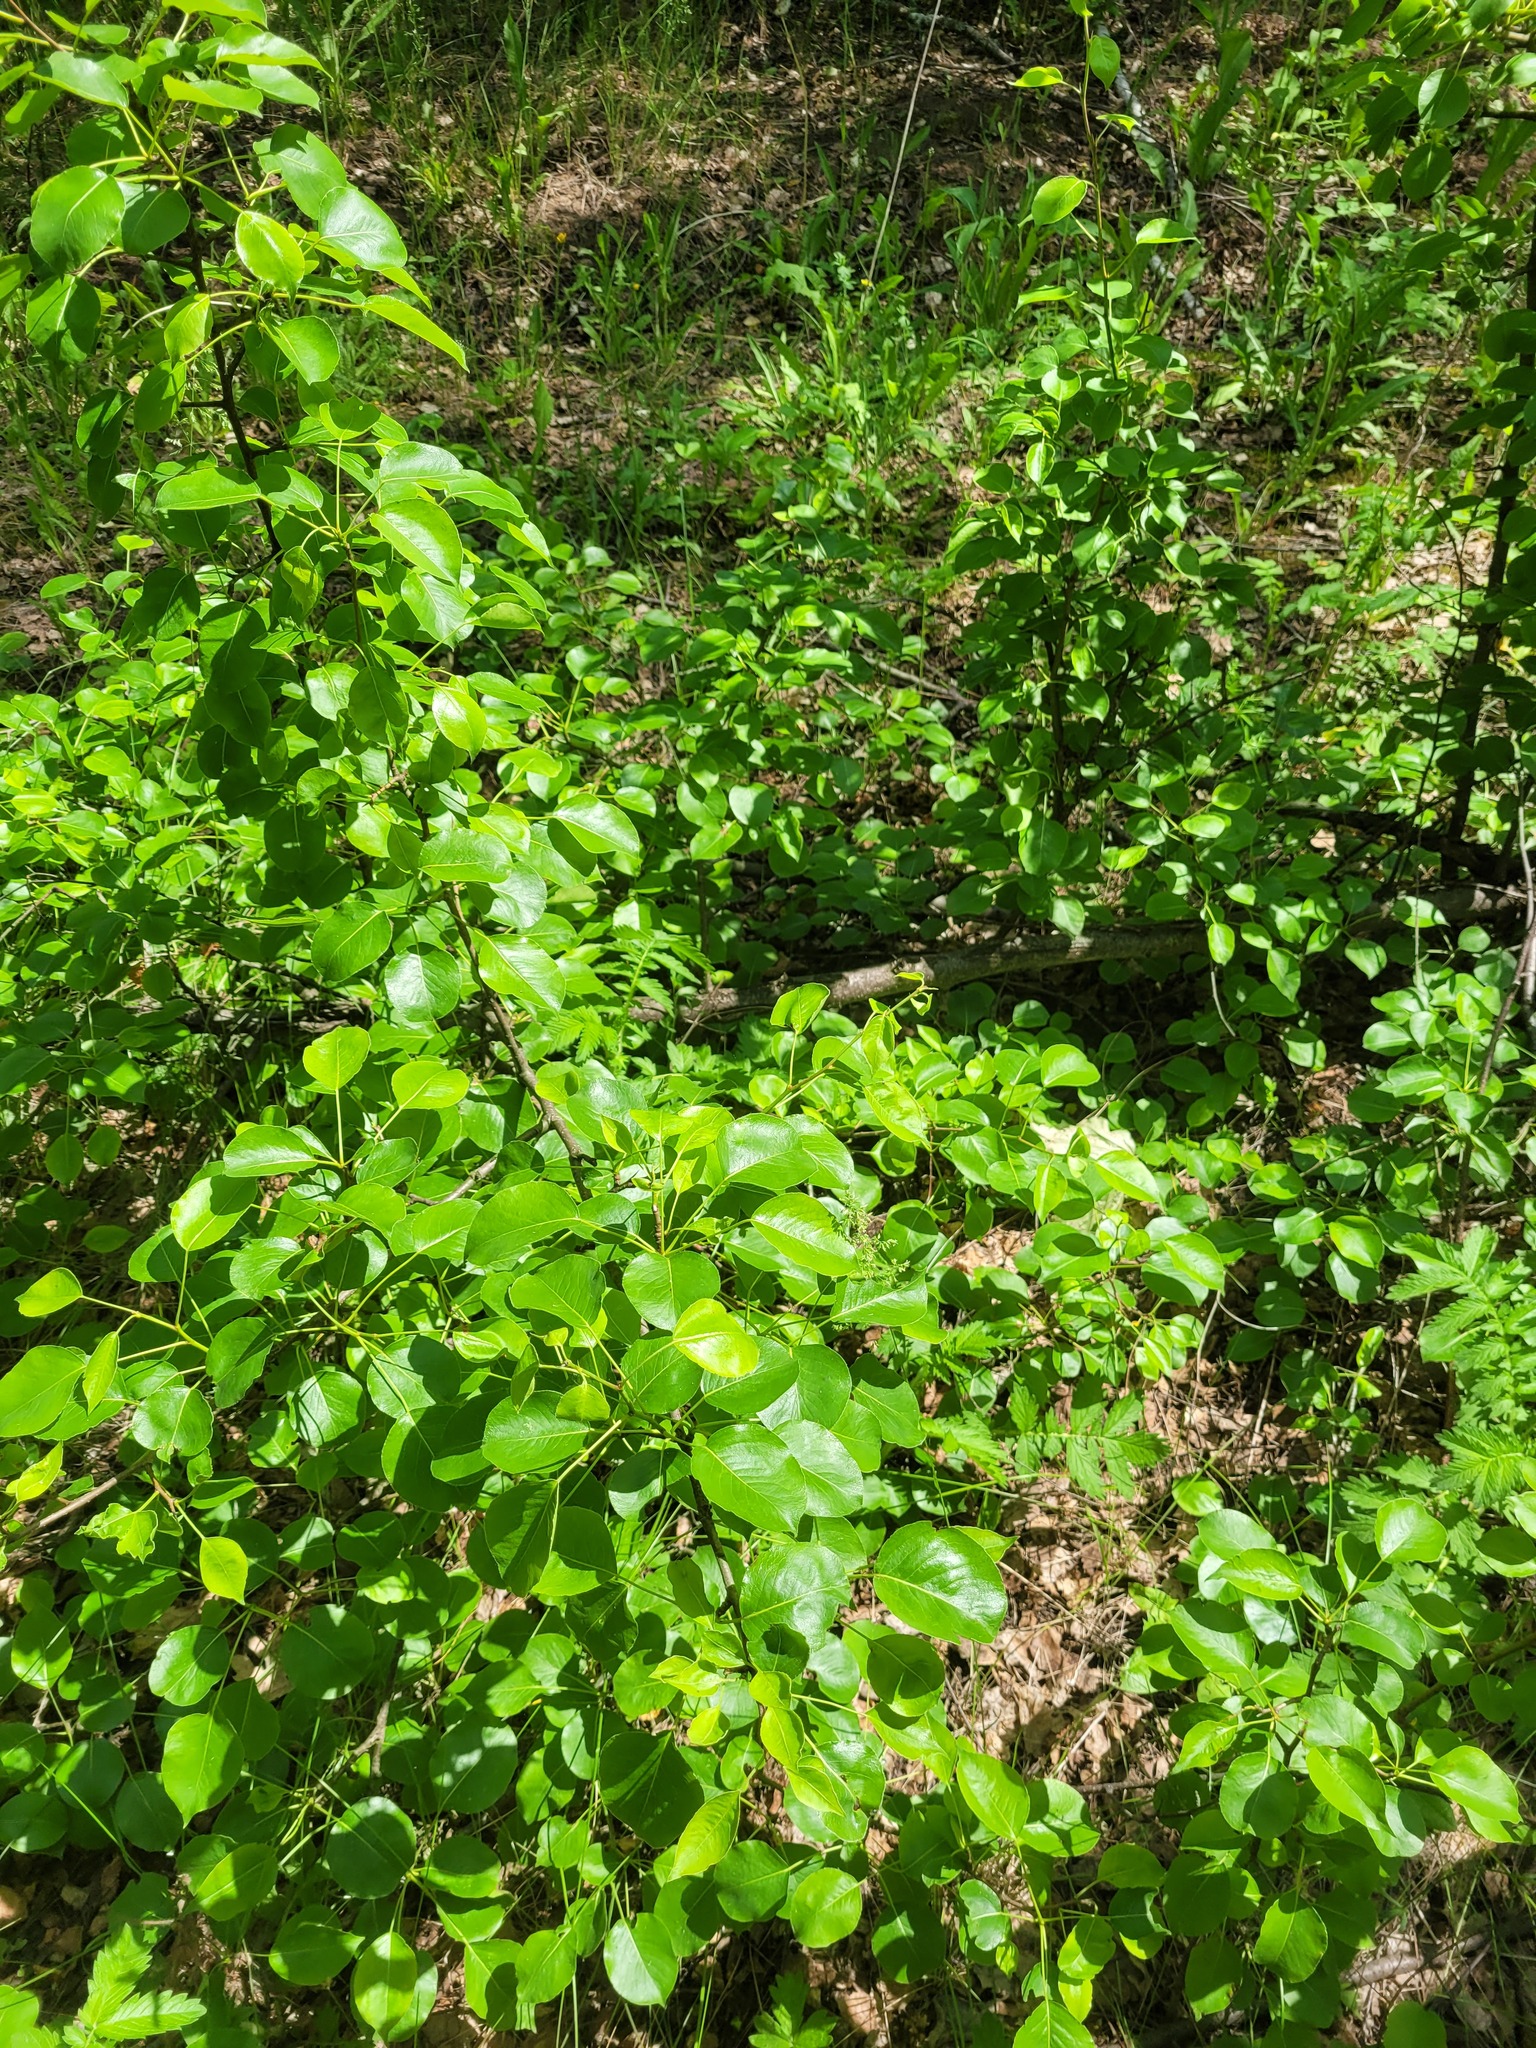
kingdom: Plantae
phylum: Tracheophyta
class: Magnoliopsida
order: Rosales
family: Rosaceae
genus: Pyrus
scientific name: Pyrus communis
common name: Pear
